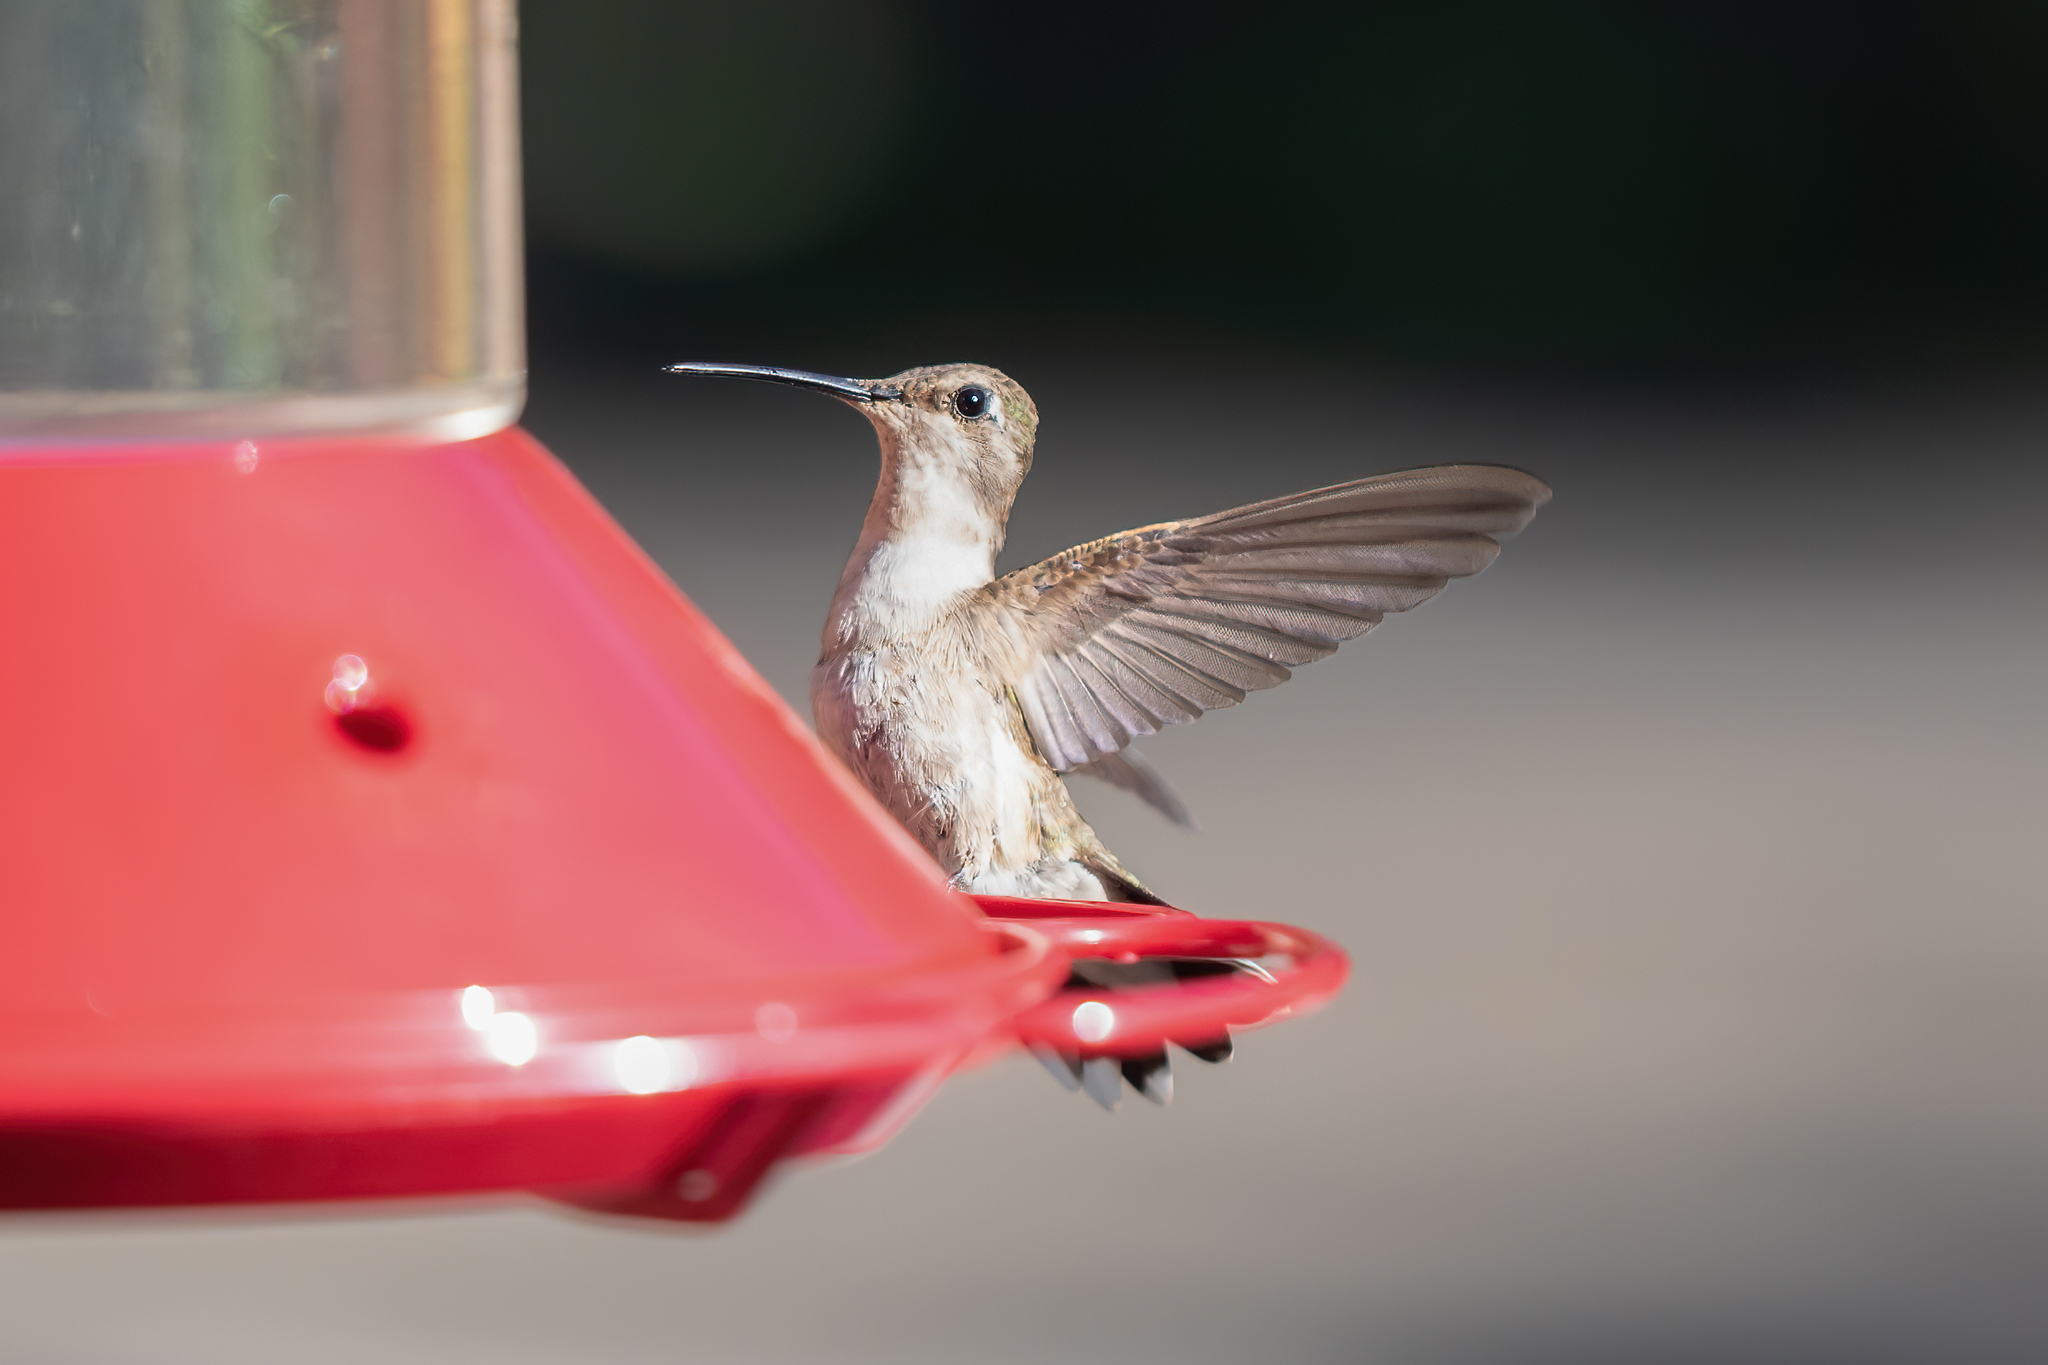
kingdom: Animalia
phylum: Chordata
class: Aves
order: Apodiformes
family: Trochilidae
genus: Archilochus
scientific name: Archilochus alexandri
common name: Black-chinned hummingbird
